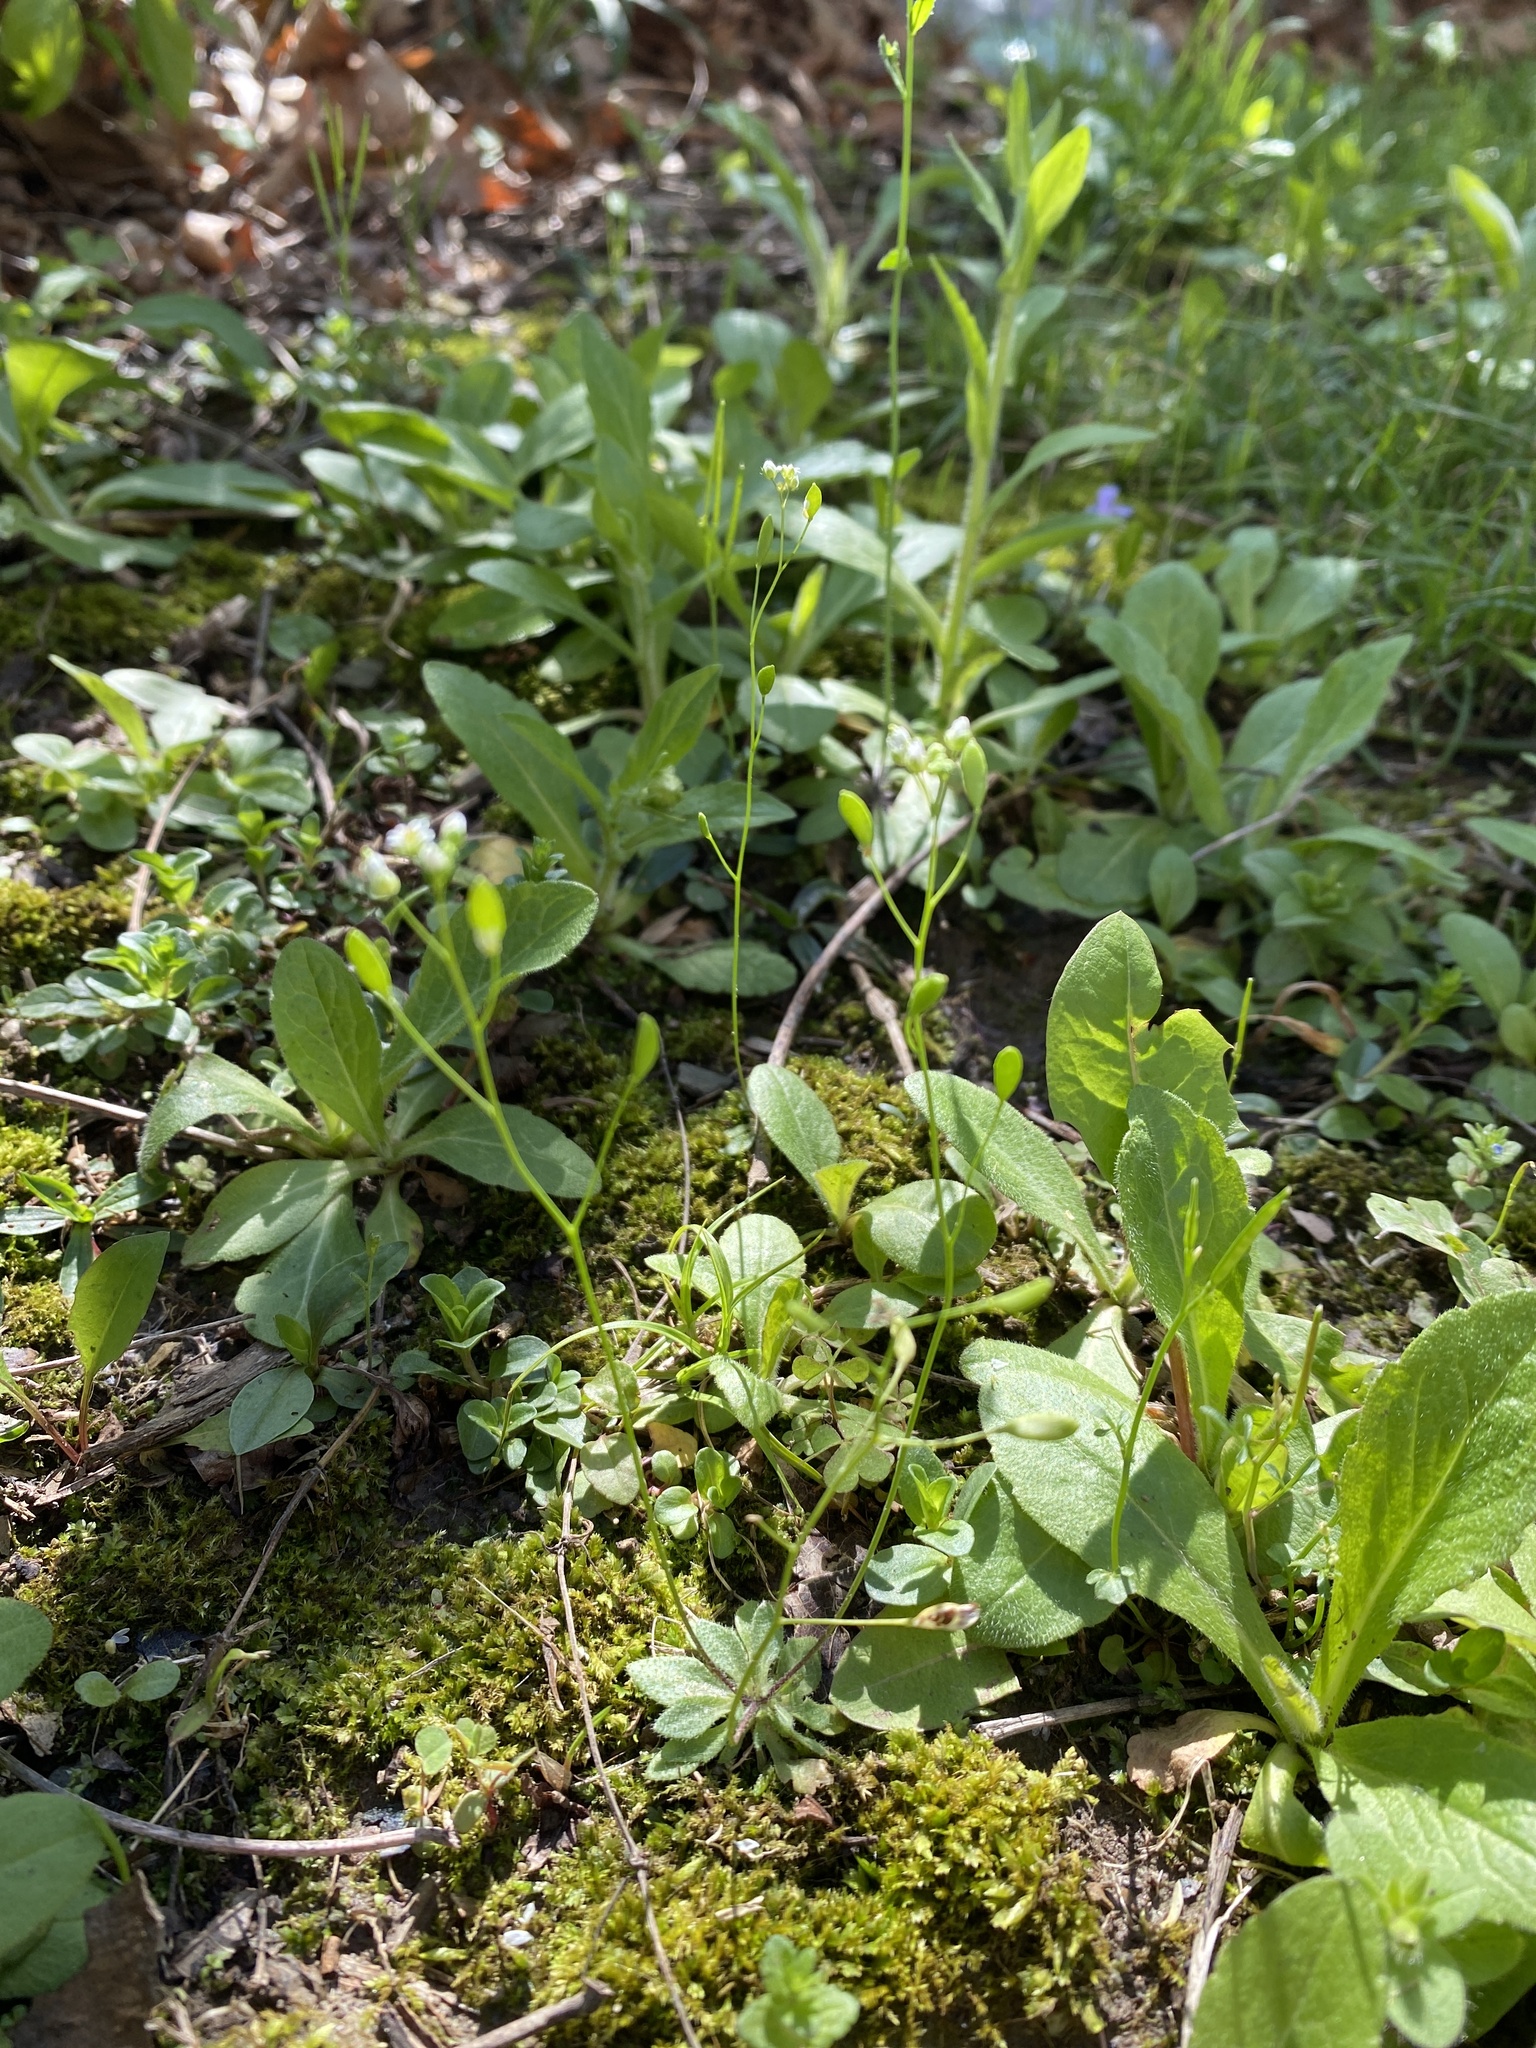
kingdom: Plantae
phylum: Tracheophyta
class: Magnoliopsida
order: Brassicales
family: Brassicaceae
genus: Draba
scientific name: Draba verna
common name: Spring draba
